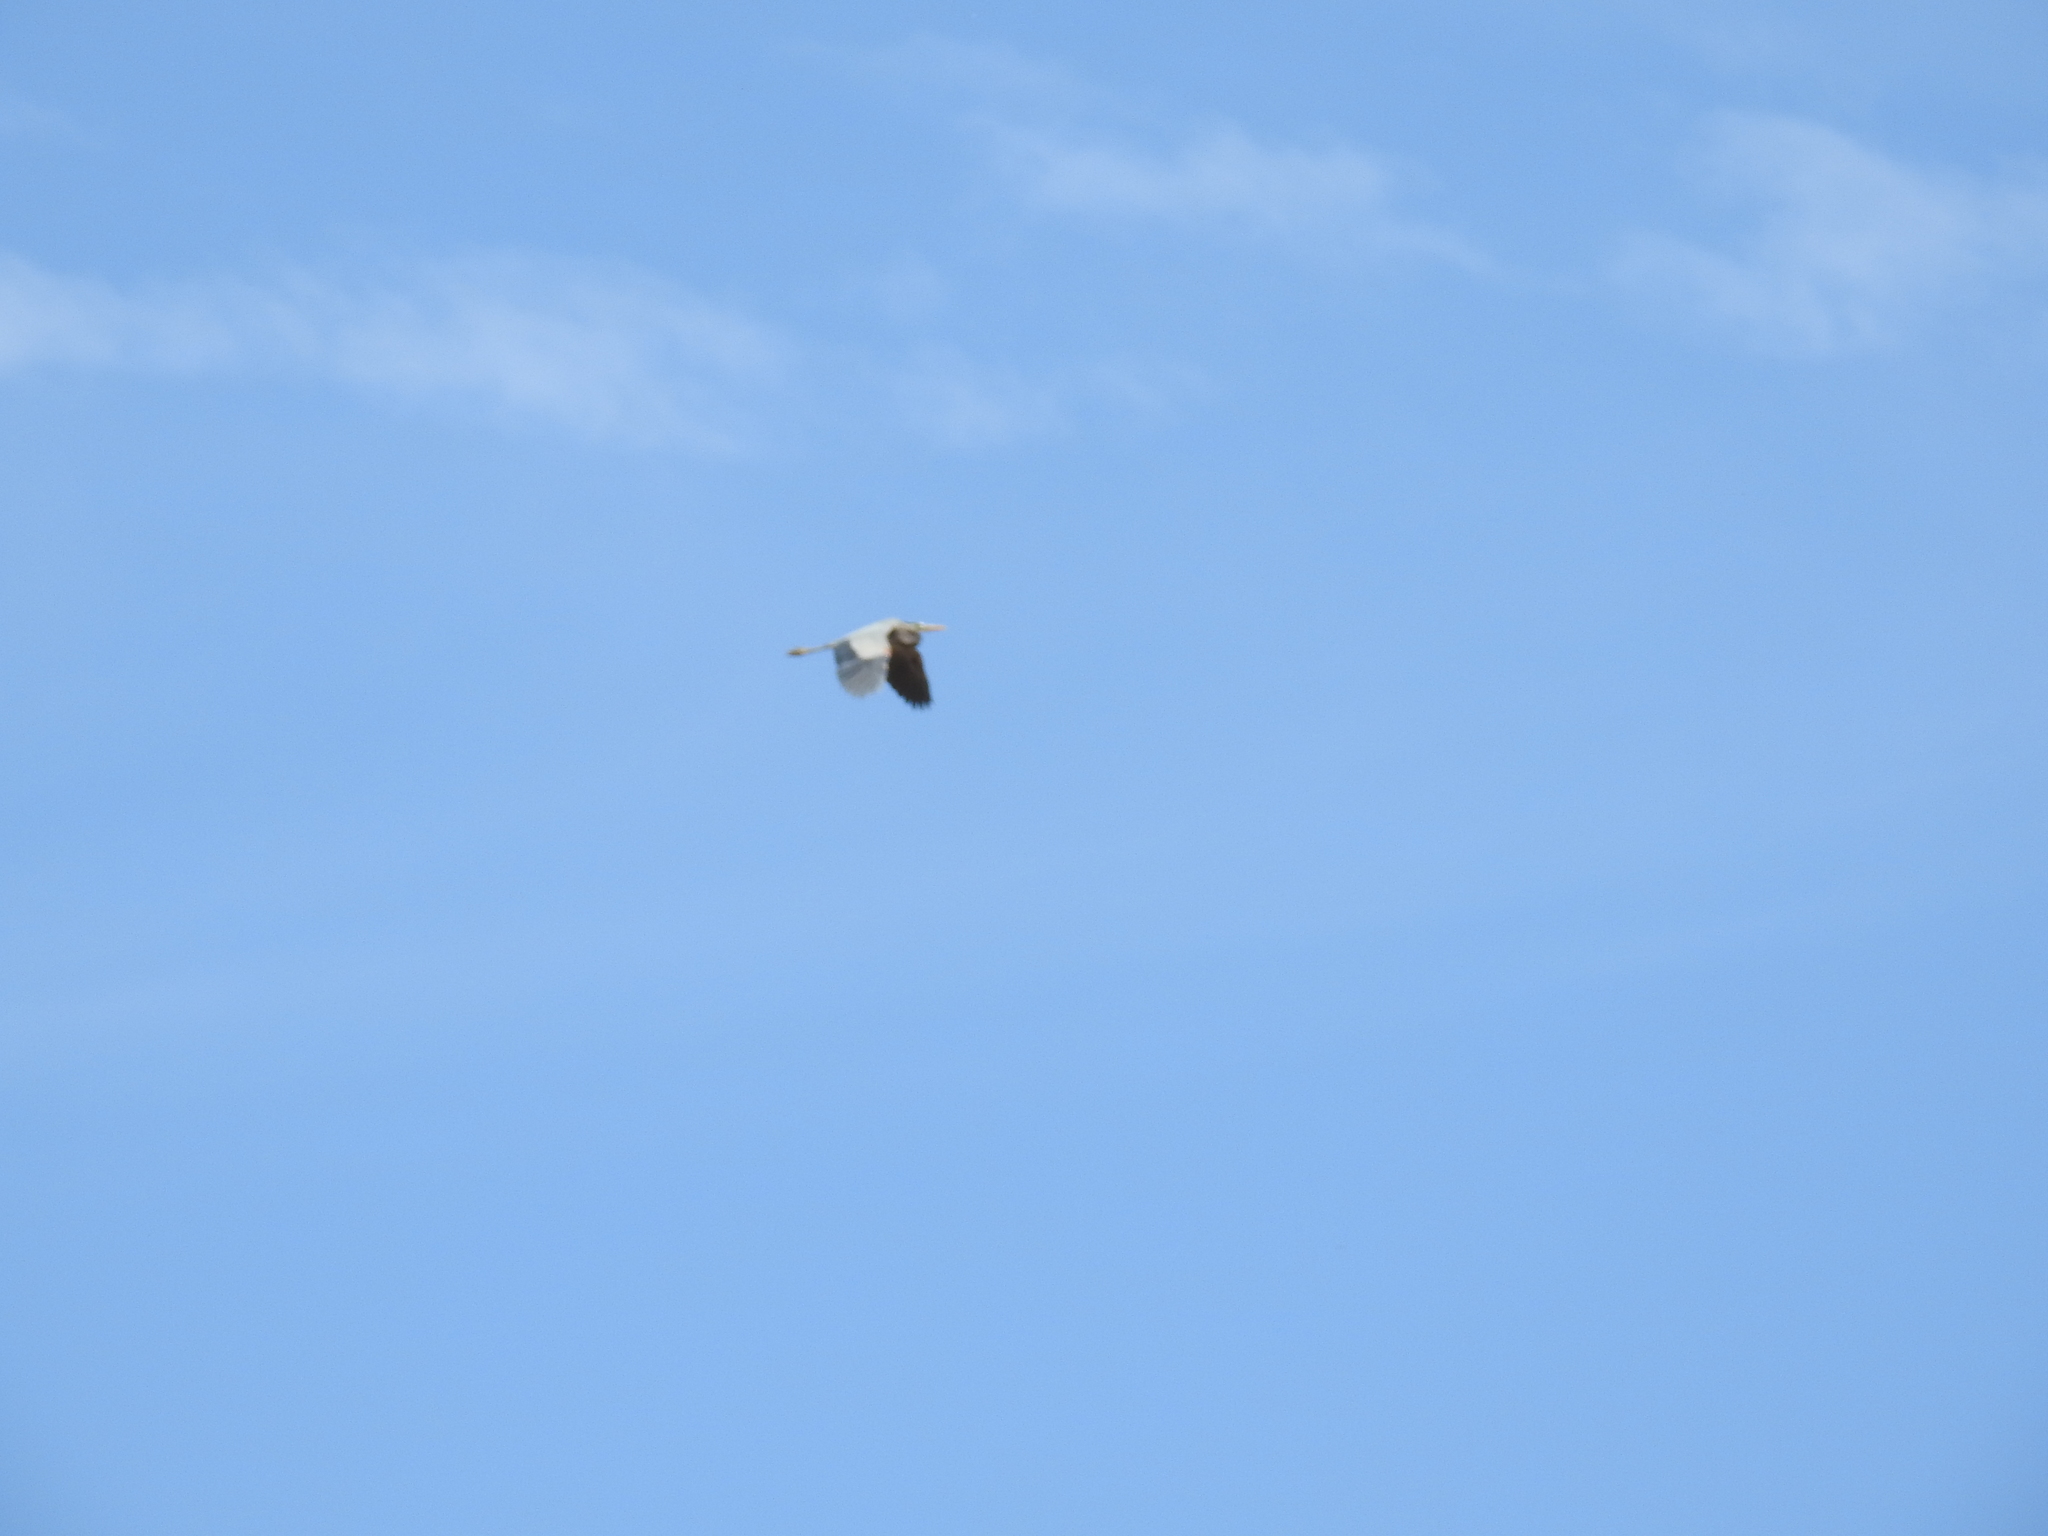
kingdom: Animalia
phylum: Chordata
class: Aves
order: Pelecaniformes
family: Ardeidae
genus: Ardea
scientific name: Ardea herodias
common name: Great blue heron
